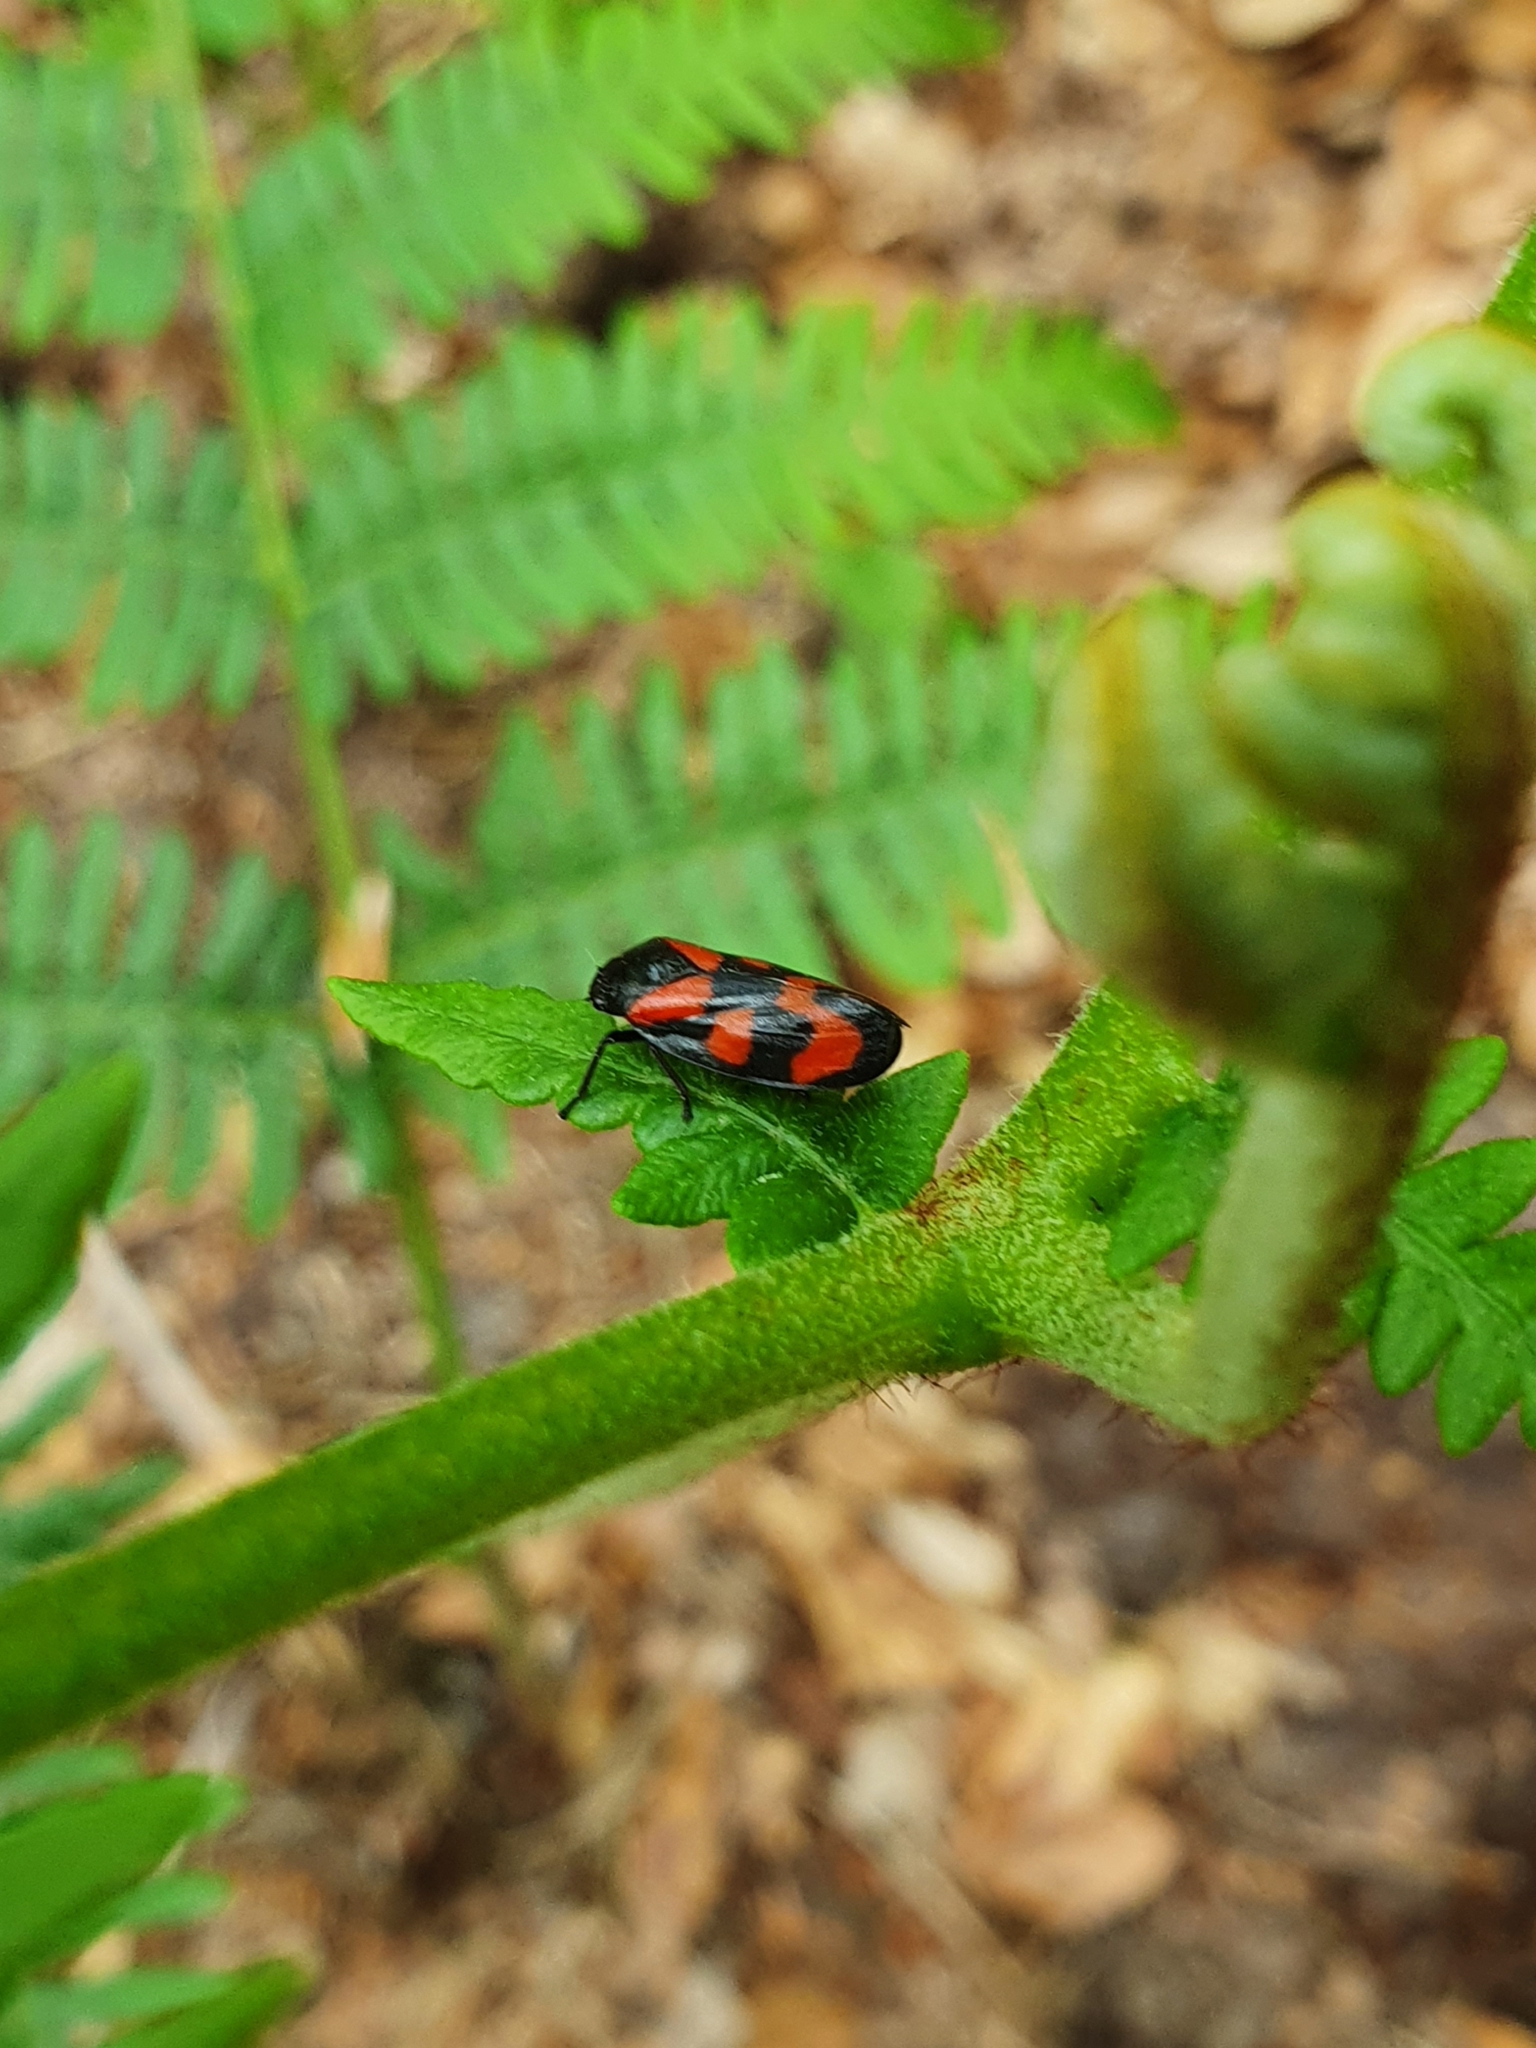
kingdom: Animalia
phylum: Arthropoda
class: Insecta
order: Hemiptera
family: Cercopidae
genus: Cercopis
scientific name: Cercopis vulnerata
